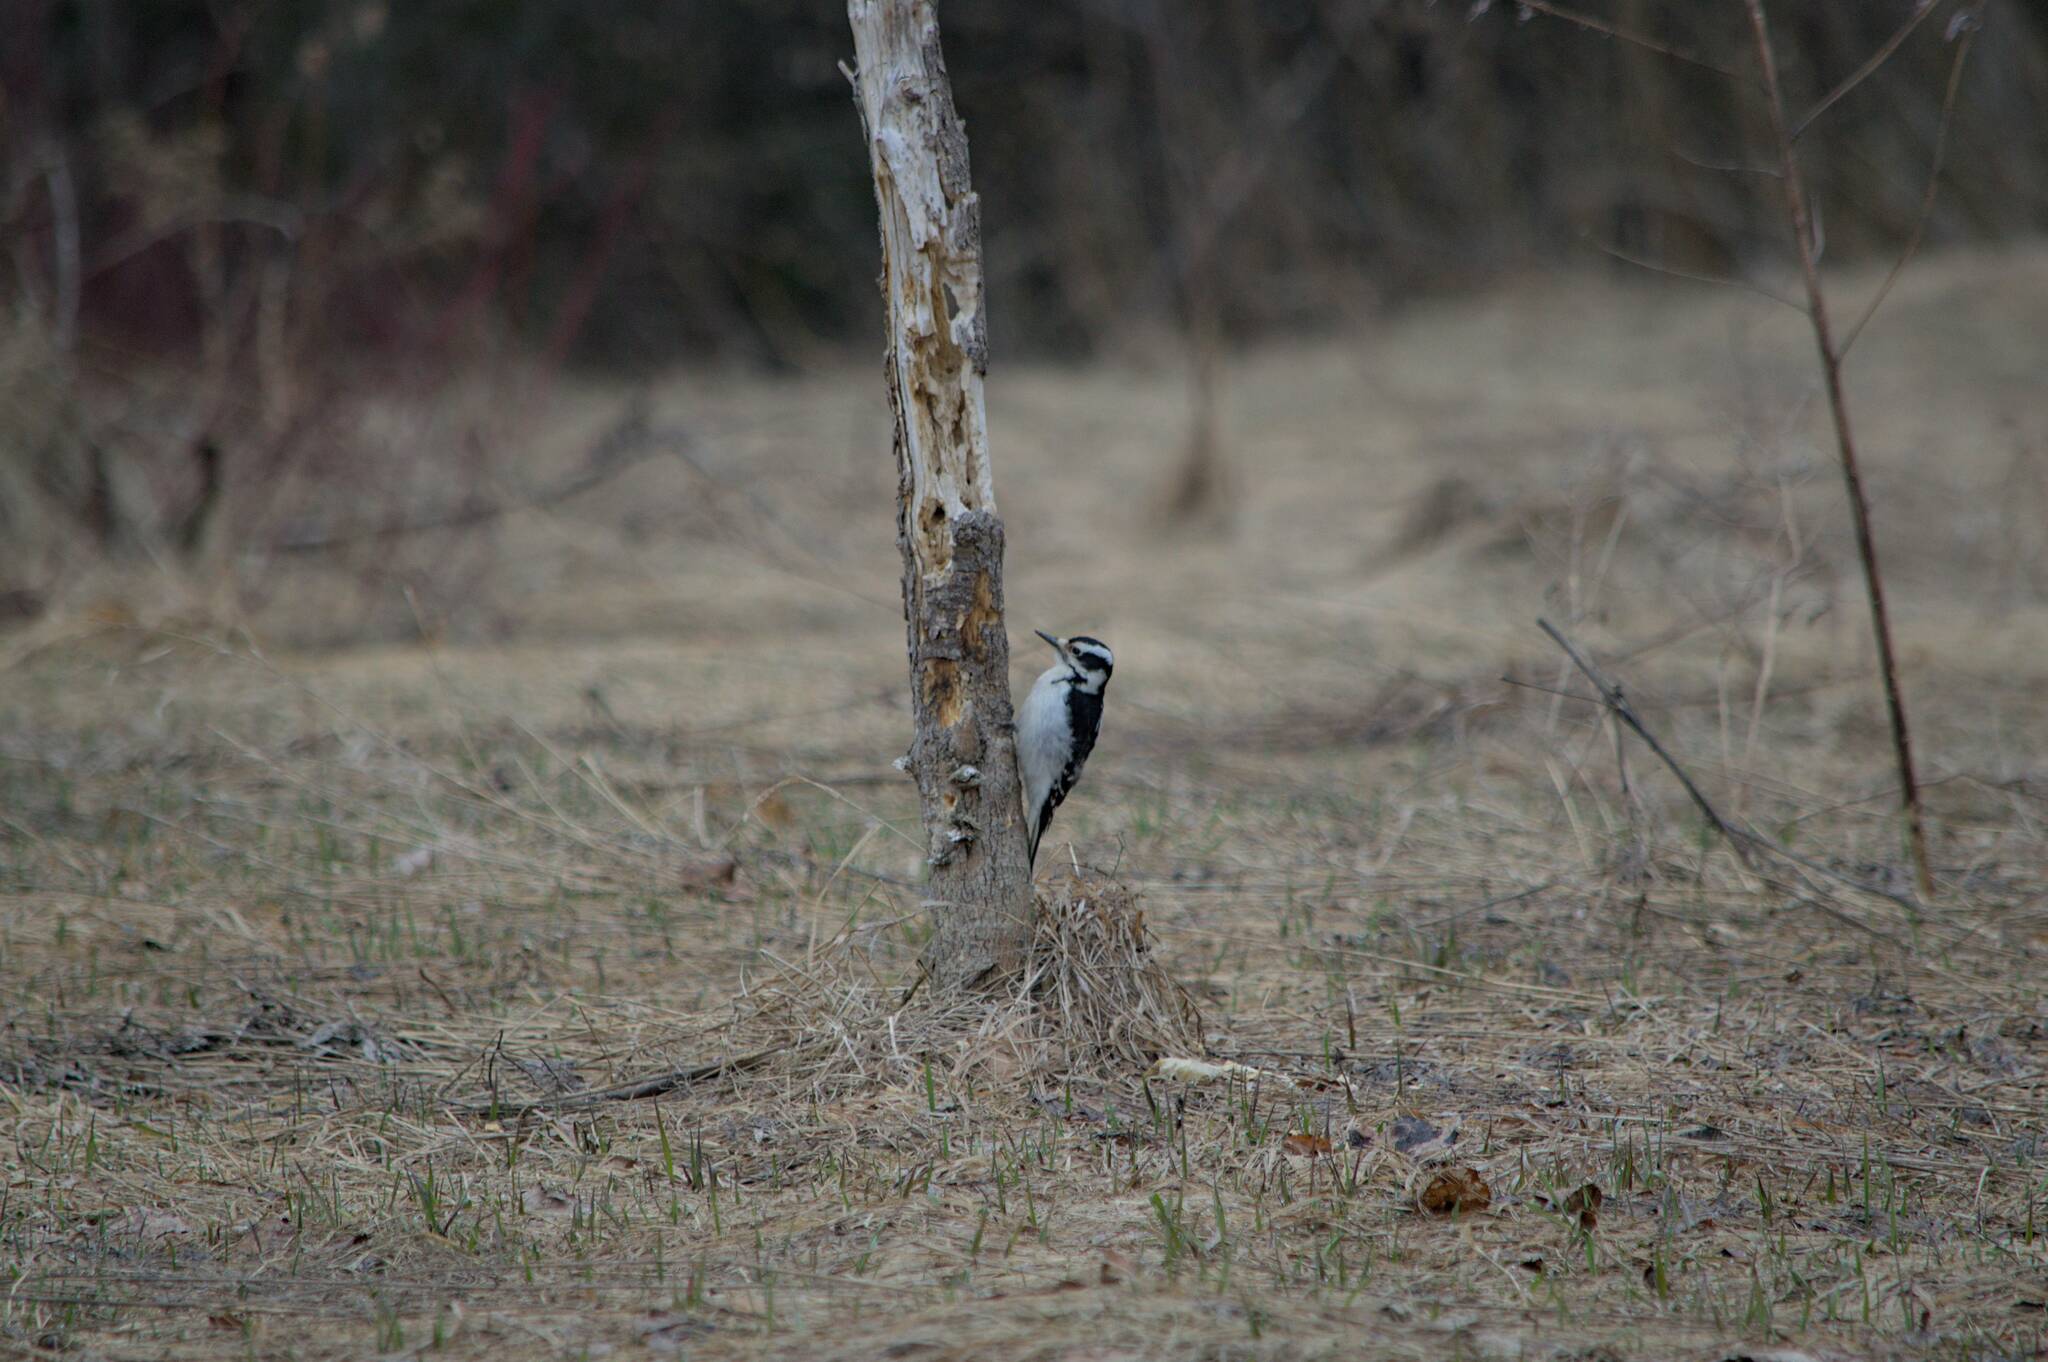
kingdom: Animalia
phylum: Chordata
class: Aves
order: Piciformes
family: Picidae
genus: Leuconotopicus
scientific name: Leuconotopicus villosus
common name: Hairy woodpecker
